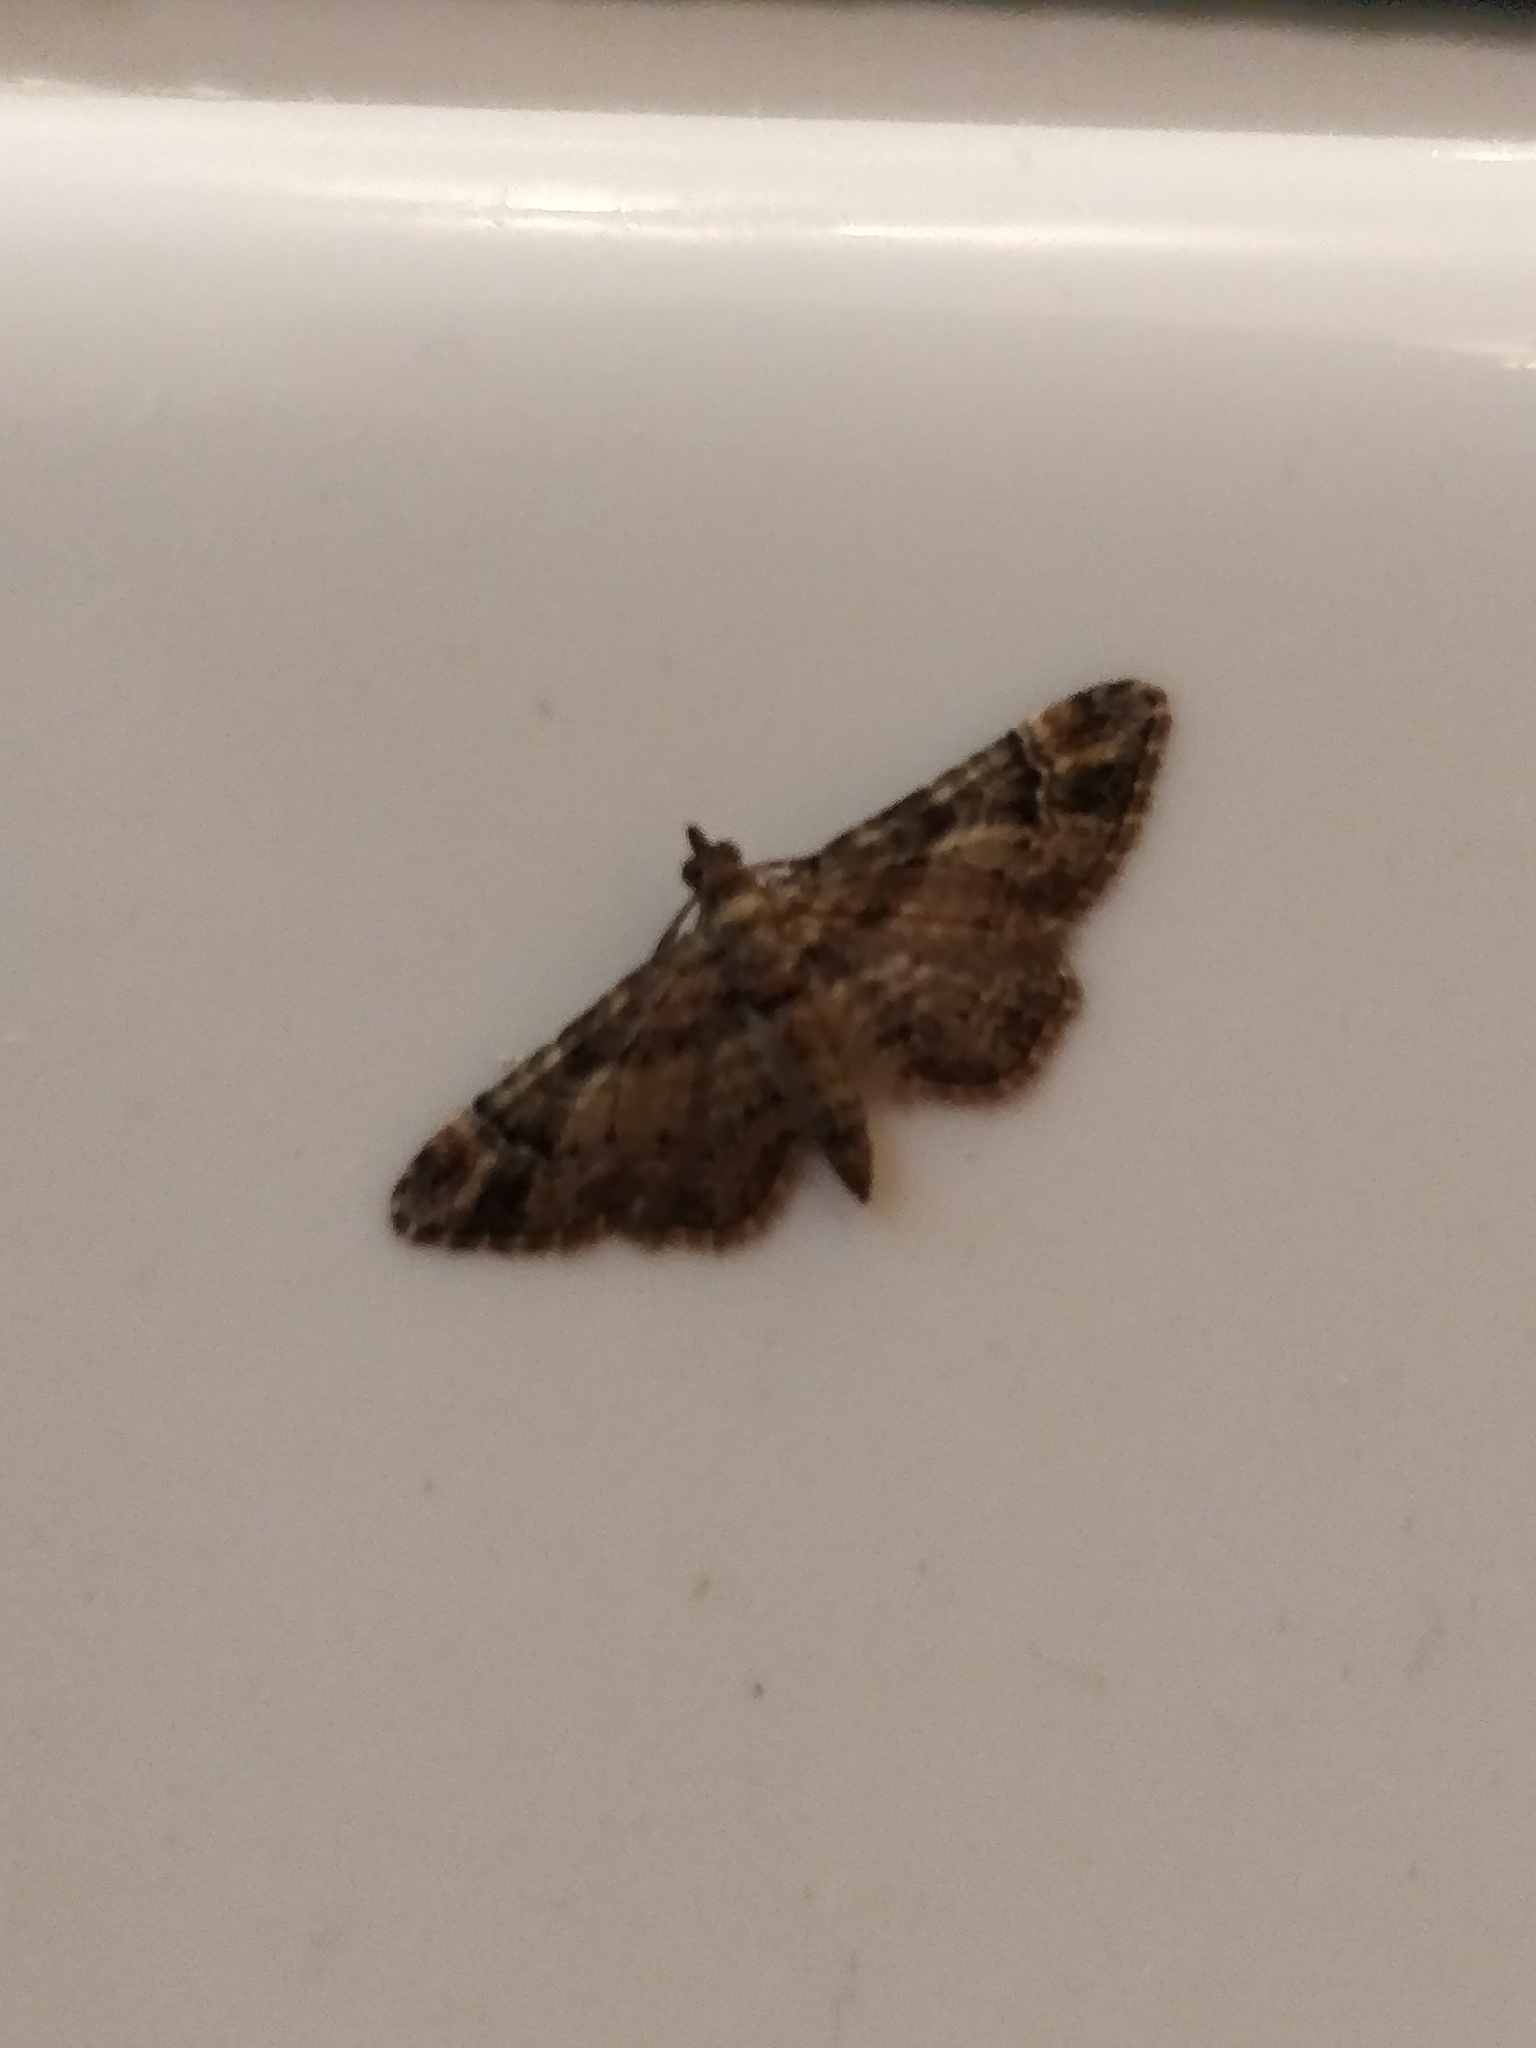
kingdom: Animalia
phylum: Arthropoda
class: Insecta
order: Lepidoptera
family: Geometridae
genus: Gymnoscelis
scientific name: Gymnoscelis rufifasciata
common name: Double-striped pug
